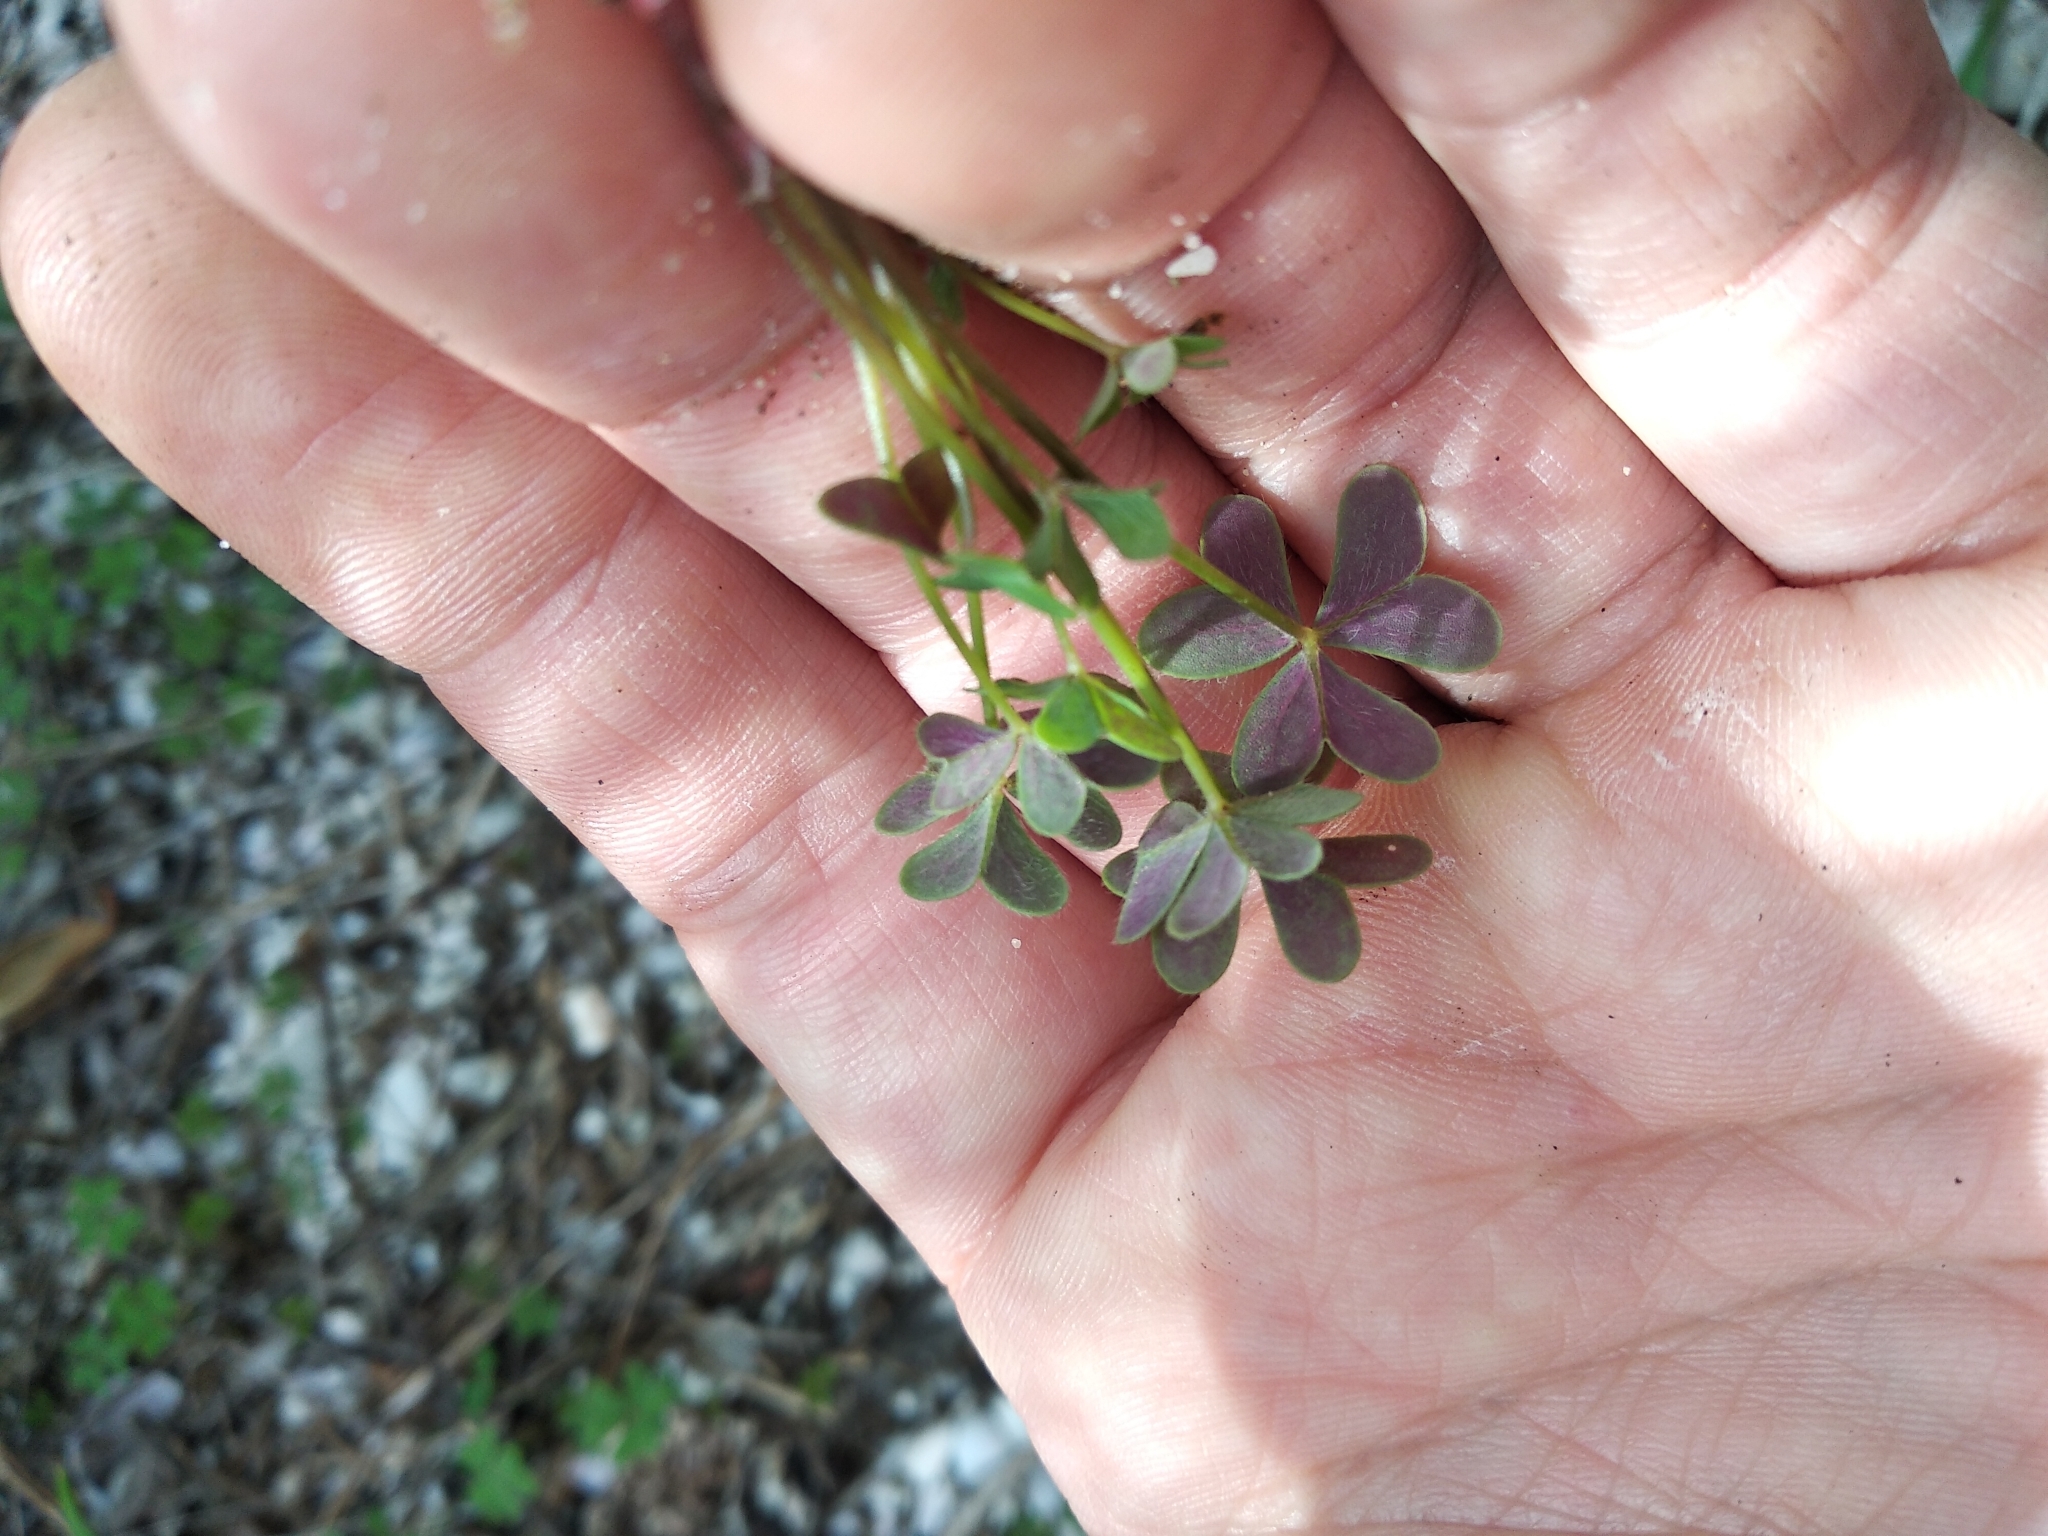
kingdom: Plantae
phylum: Tracheophyta
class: Magnoliopsida
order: Oxalidales
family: Oxalidaceae
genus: Oxalis
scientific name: Oxalis pes-caprae
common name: Bermuda-buttercup
